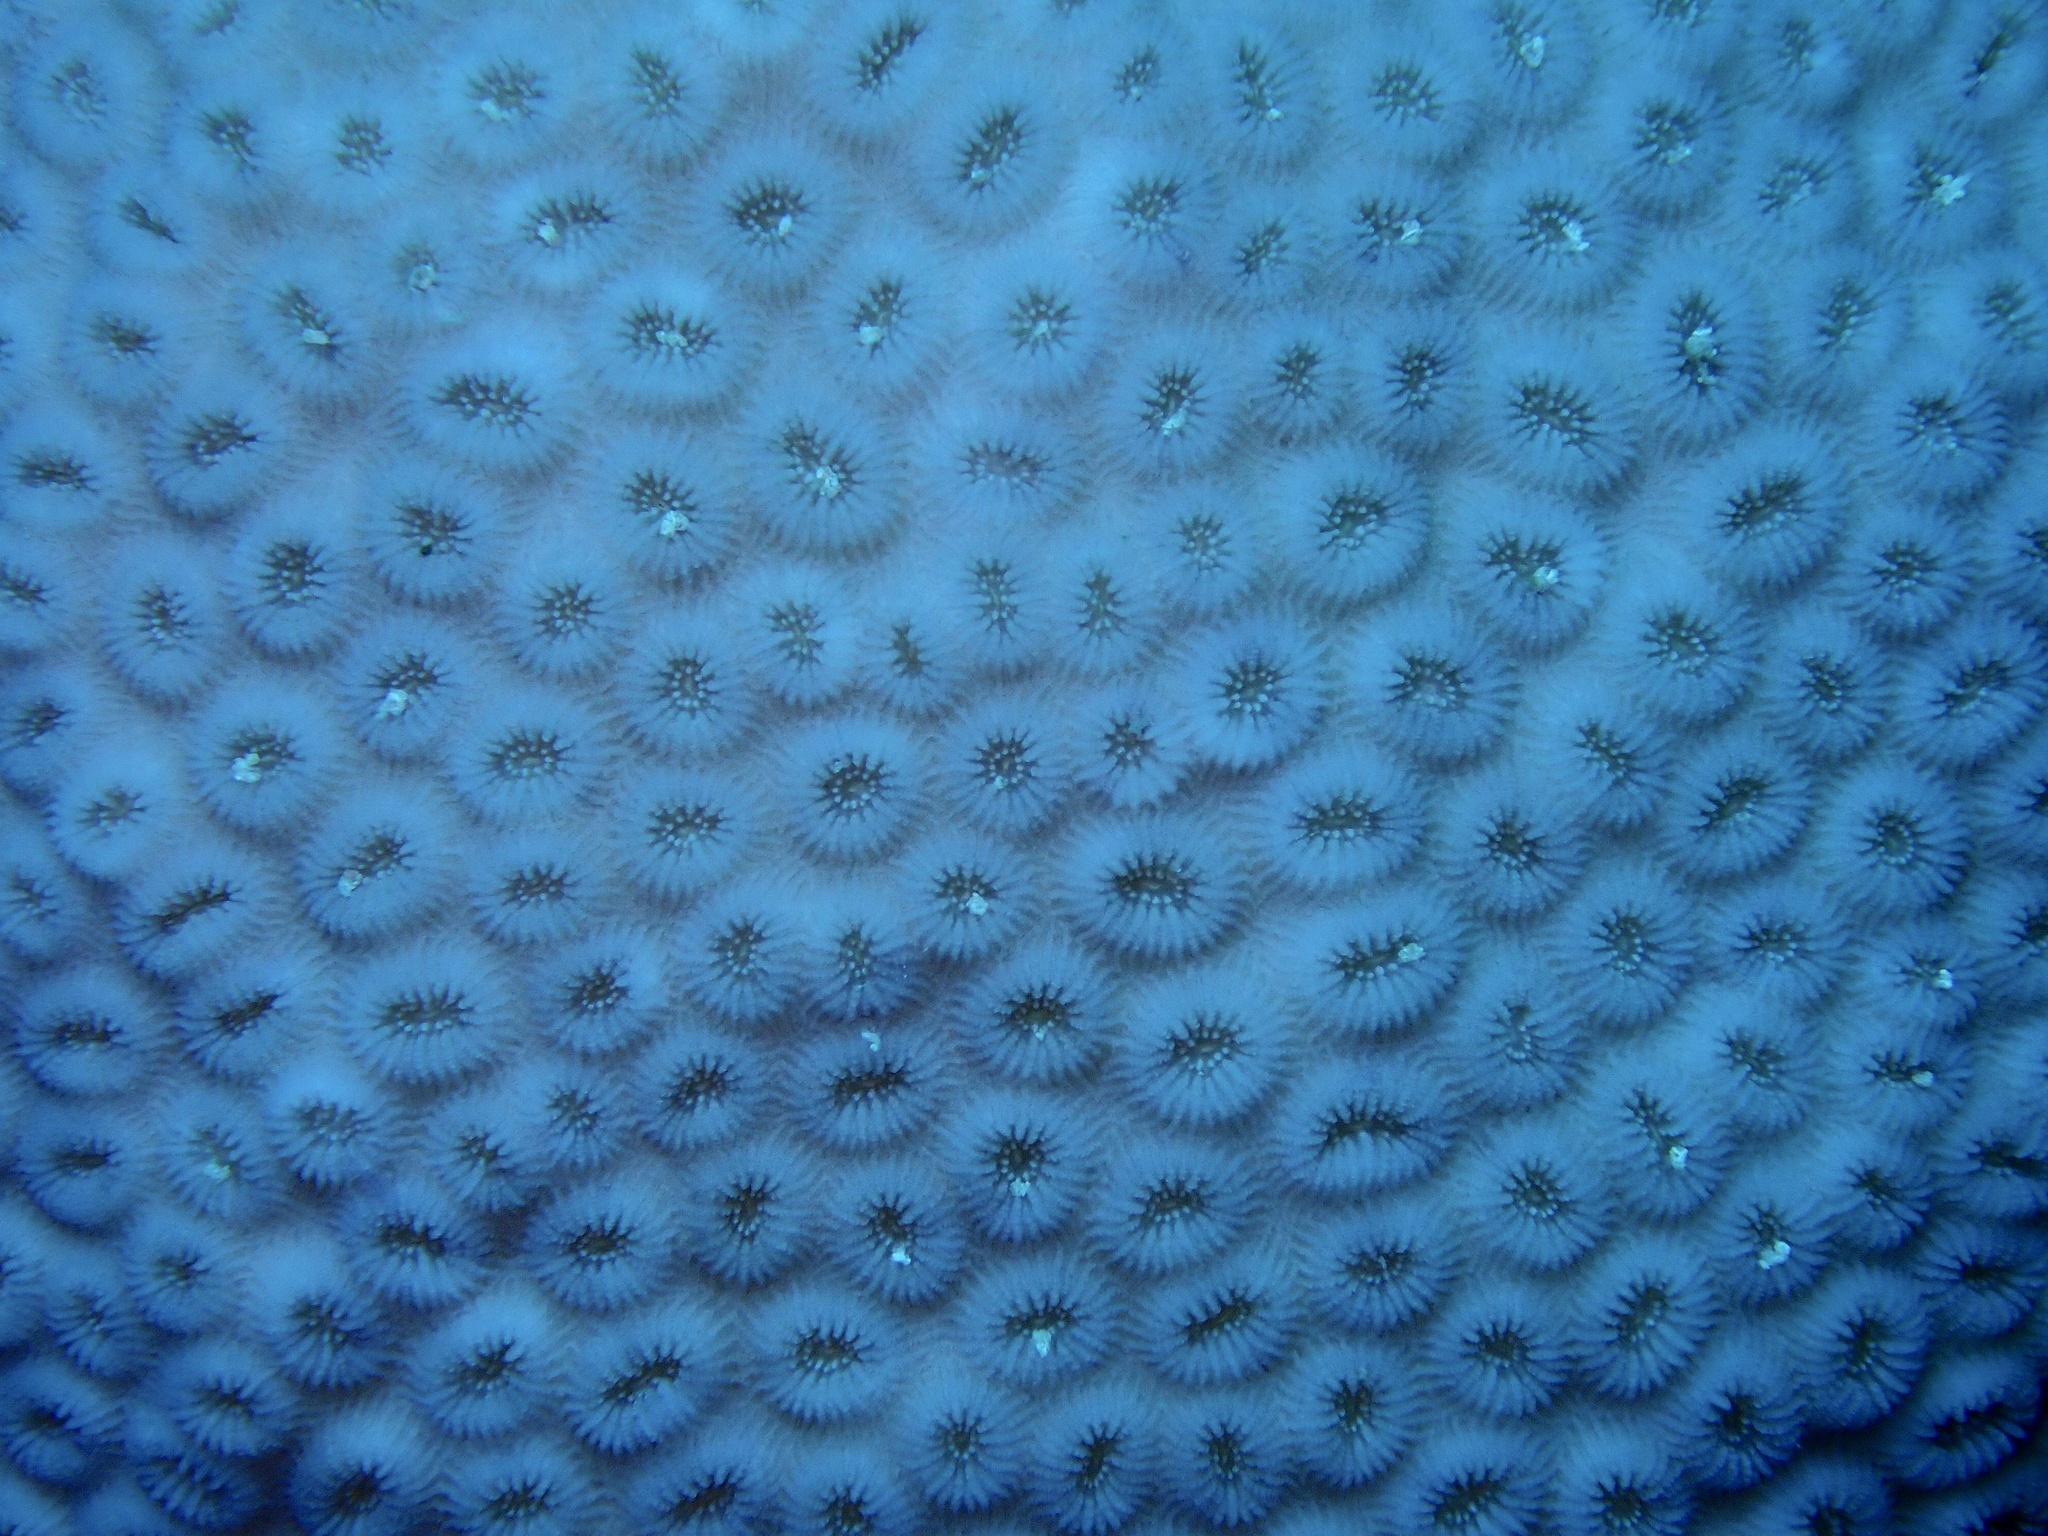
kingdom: Animalia
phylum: Cnidaria
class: Anthozoa
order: Scleractinia
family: Merulinidae
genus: Dipsastraea
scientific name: Dipsastraea laxa
